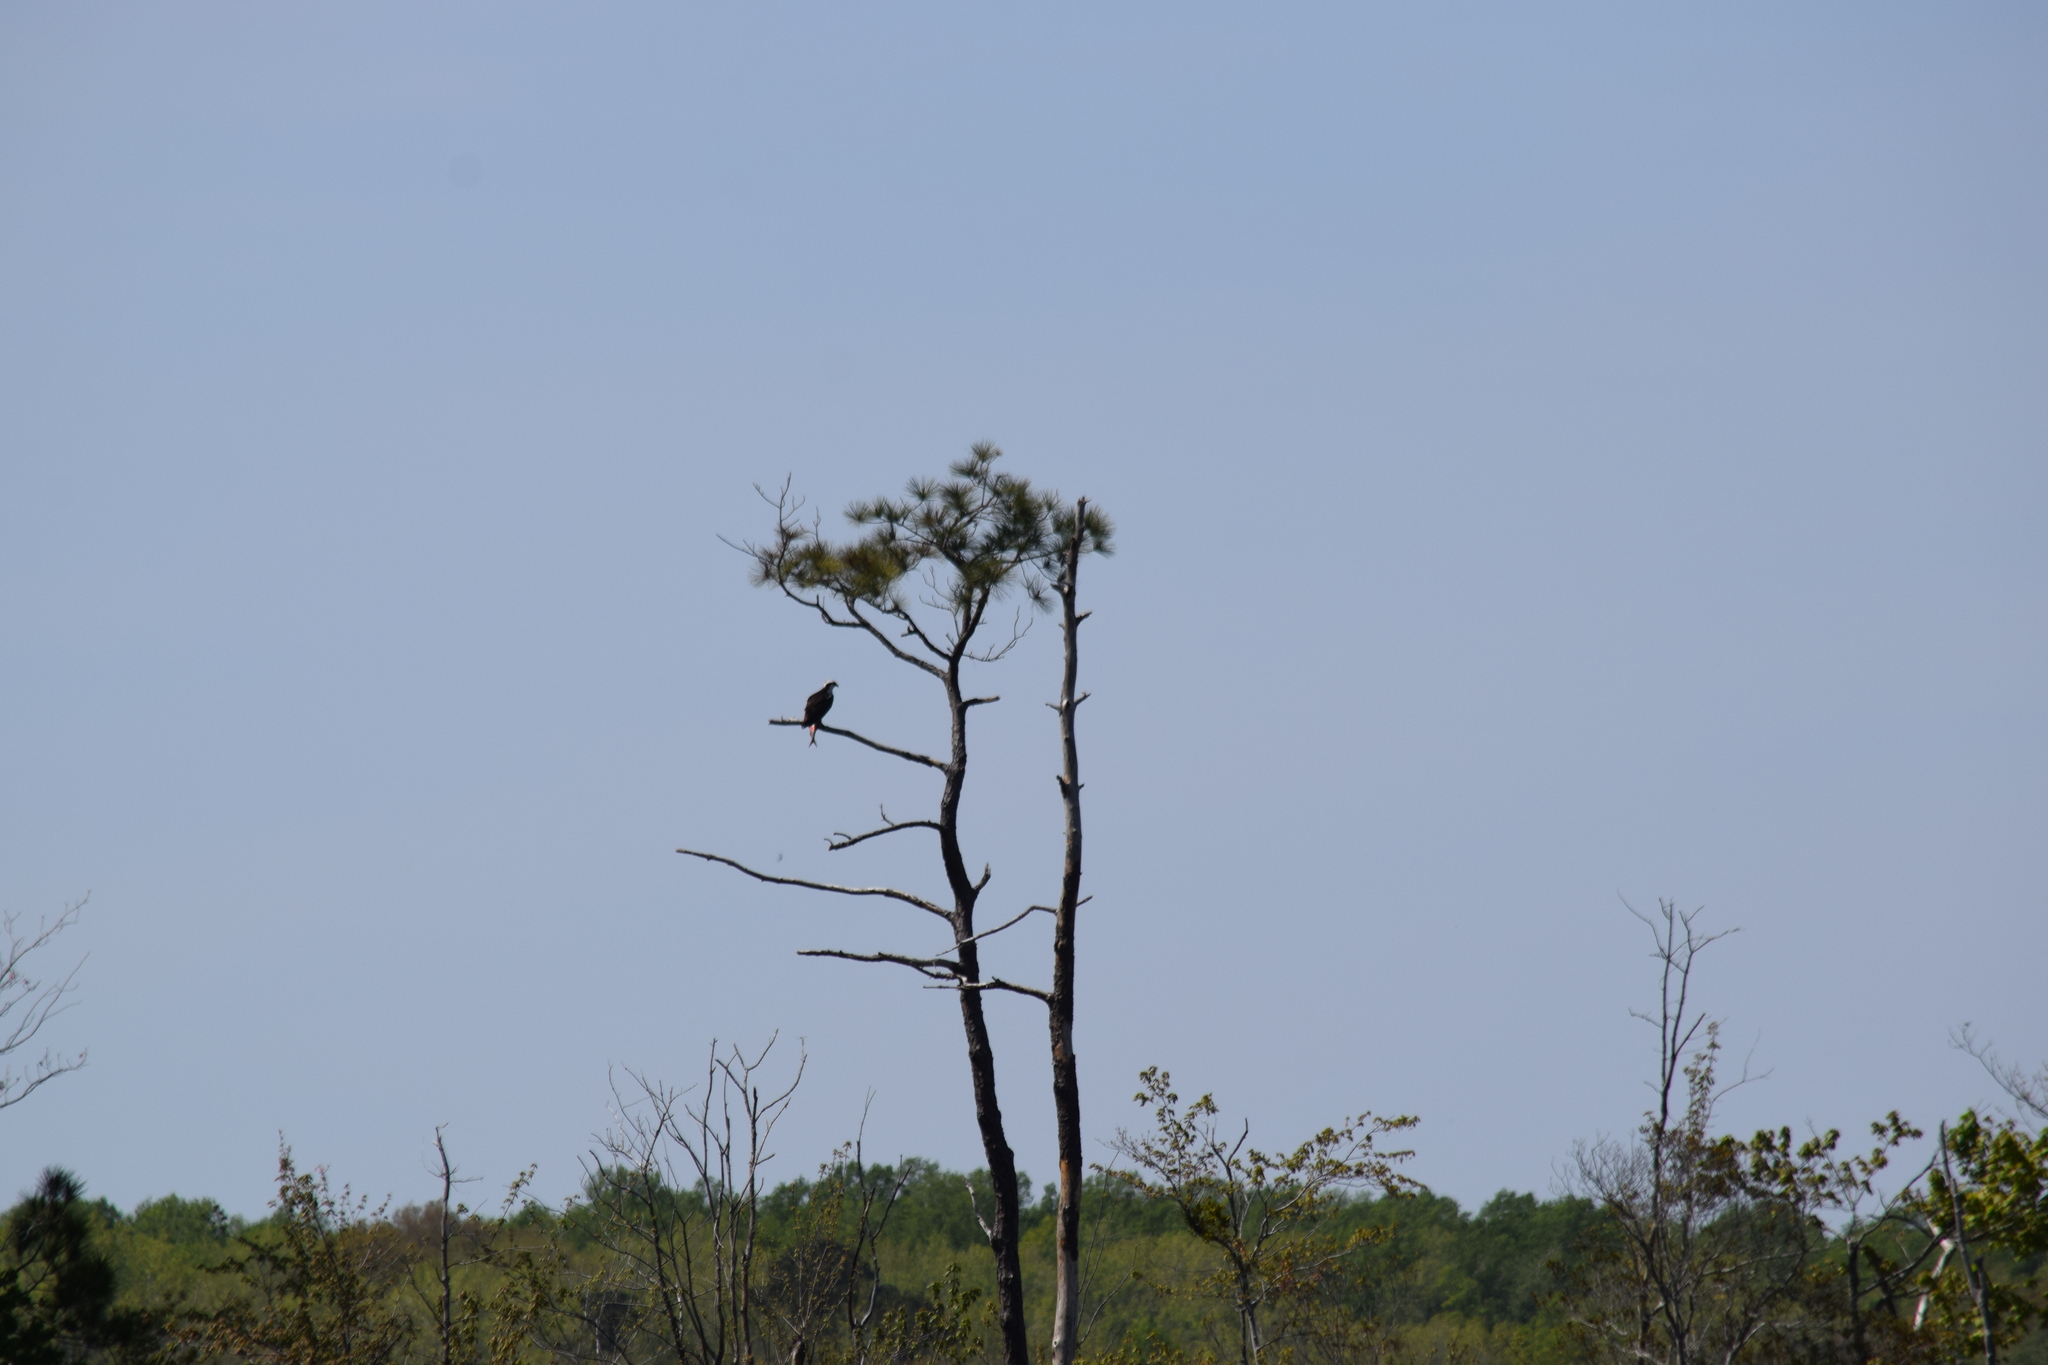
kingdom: Animalia
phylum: Chordata
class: Aves
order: Accipitriformes
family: Pandionidae
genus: Pandion
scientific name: Pandion haliaetus
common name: Osprey
